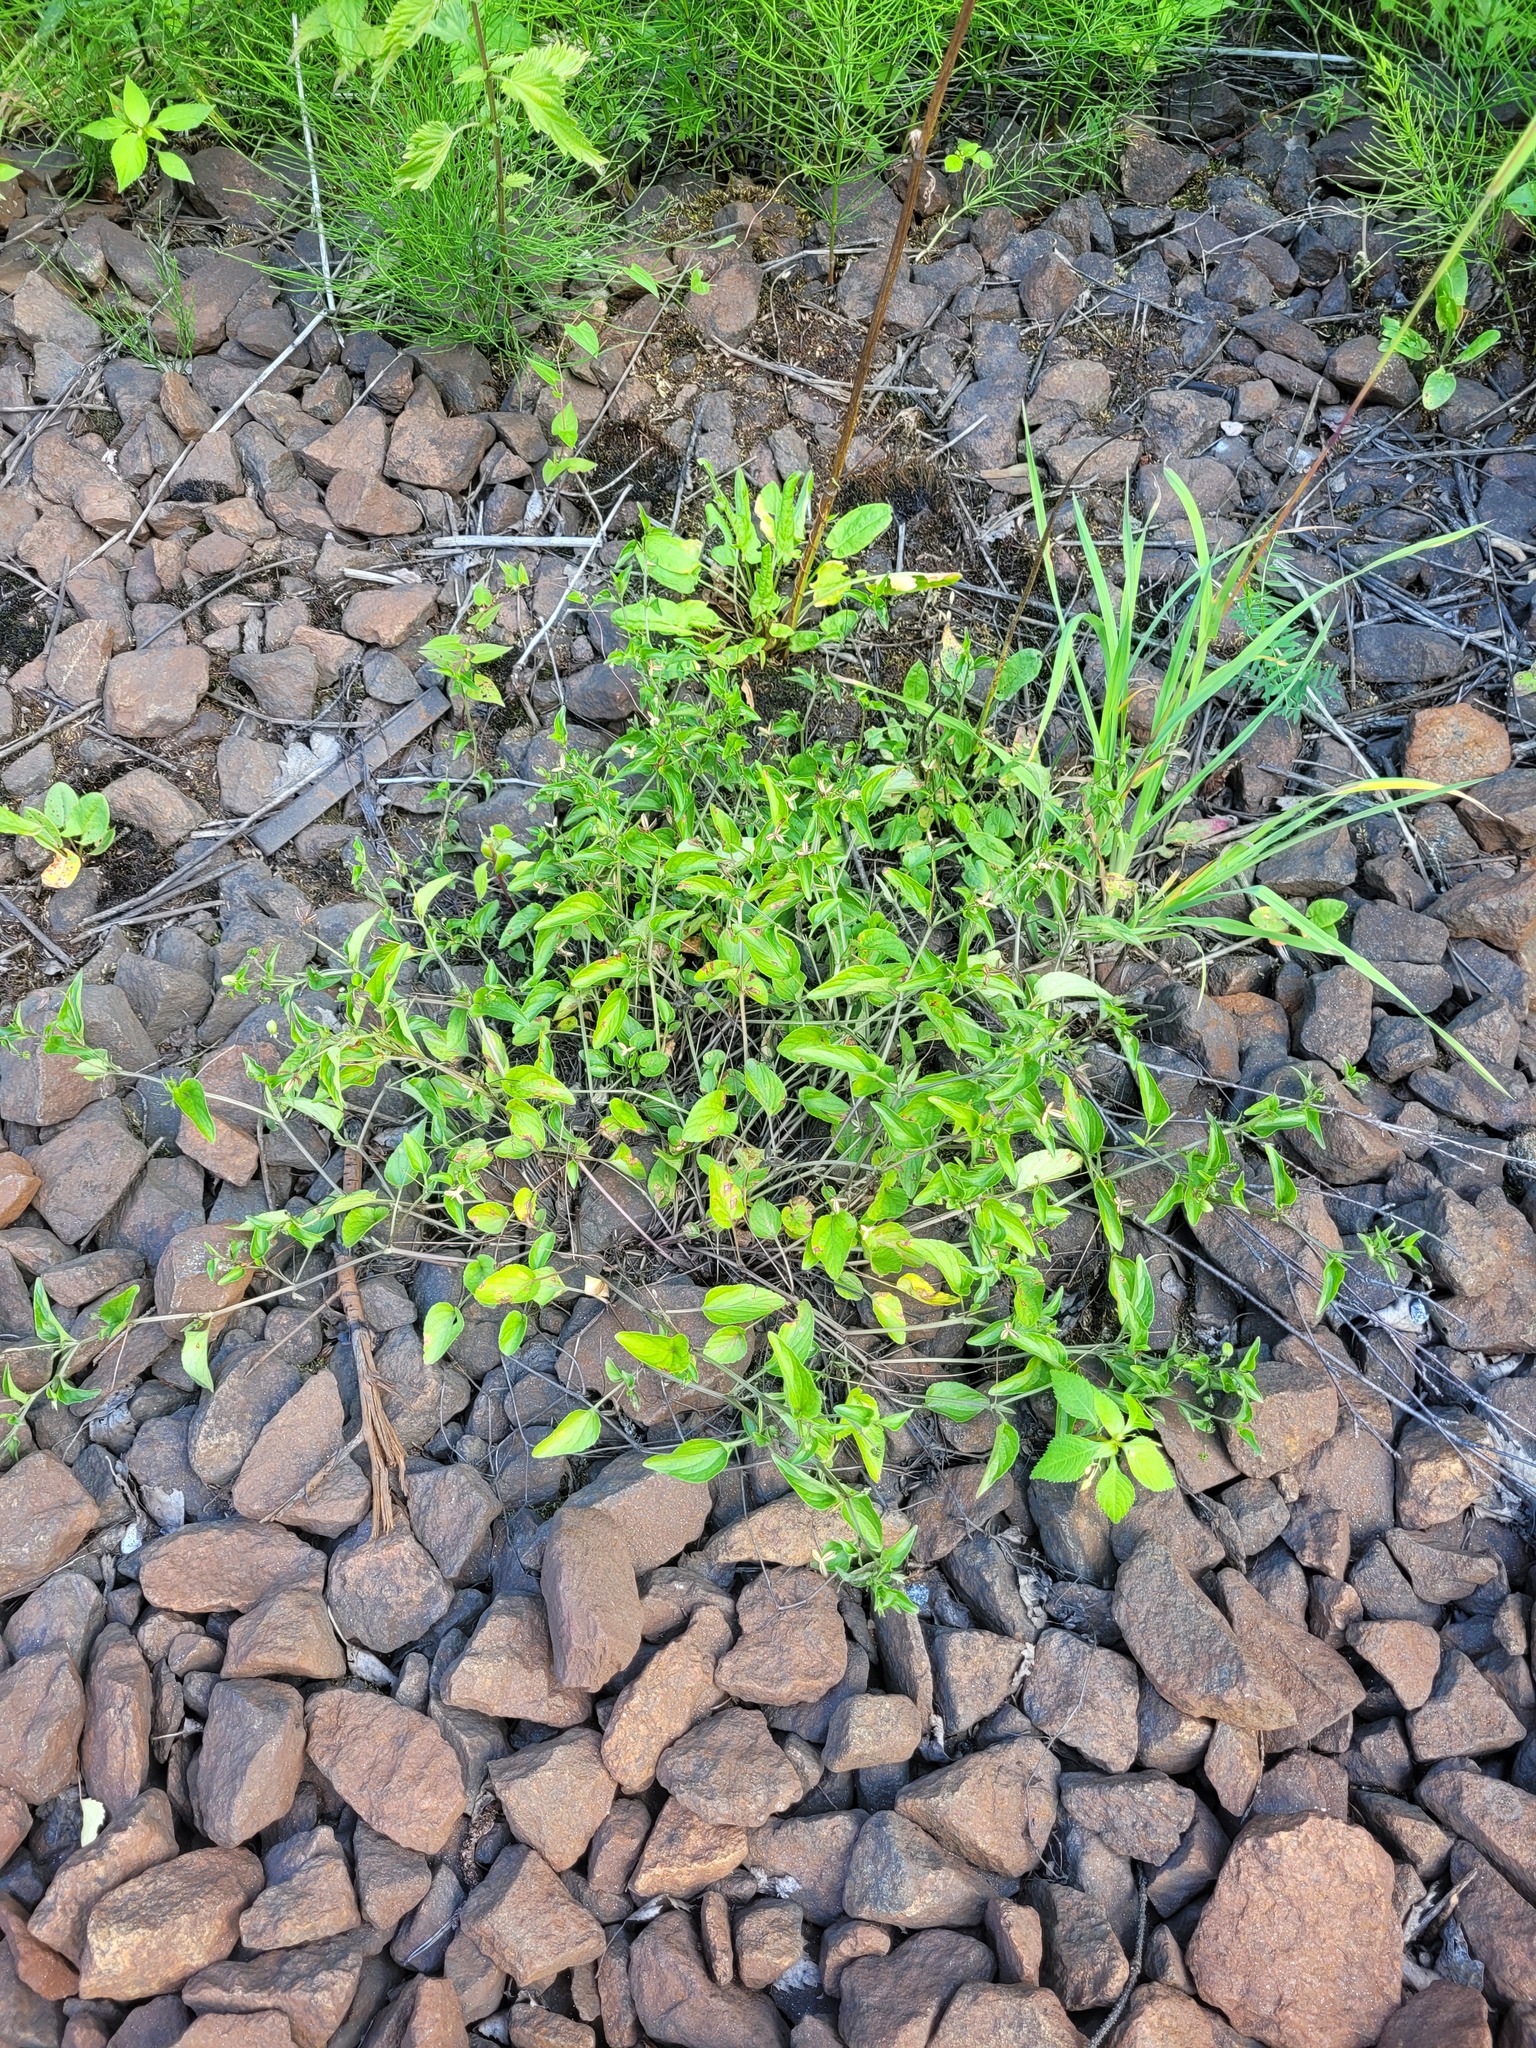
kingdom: Plantae
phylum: Tracheophyta
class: Magnoliopsida
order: Malpighiales
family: Violaceae
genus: Viola
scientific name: Viola canina
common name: Heath dog-violet
